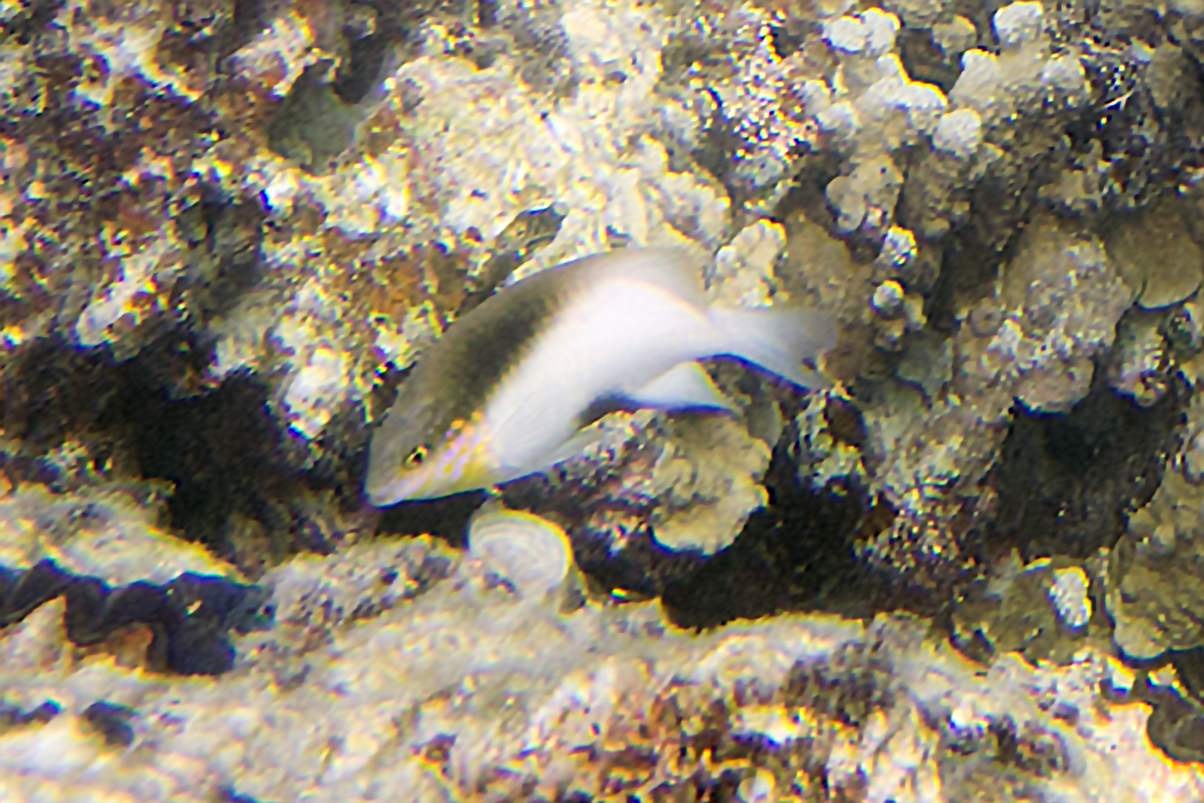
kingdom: Animalia
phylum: Chordata
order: Perciformes
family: Pomacentridae
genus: Dischistodus
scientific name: Dischistodus melanotus
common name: Black-vent damsel
